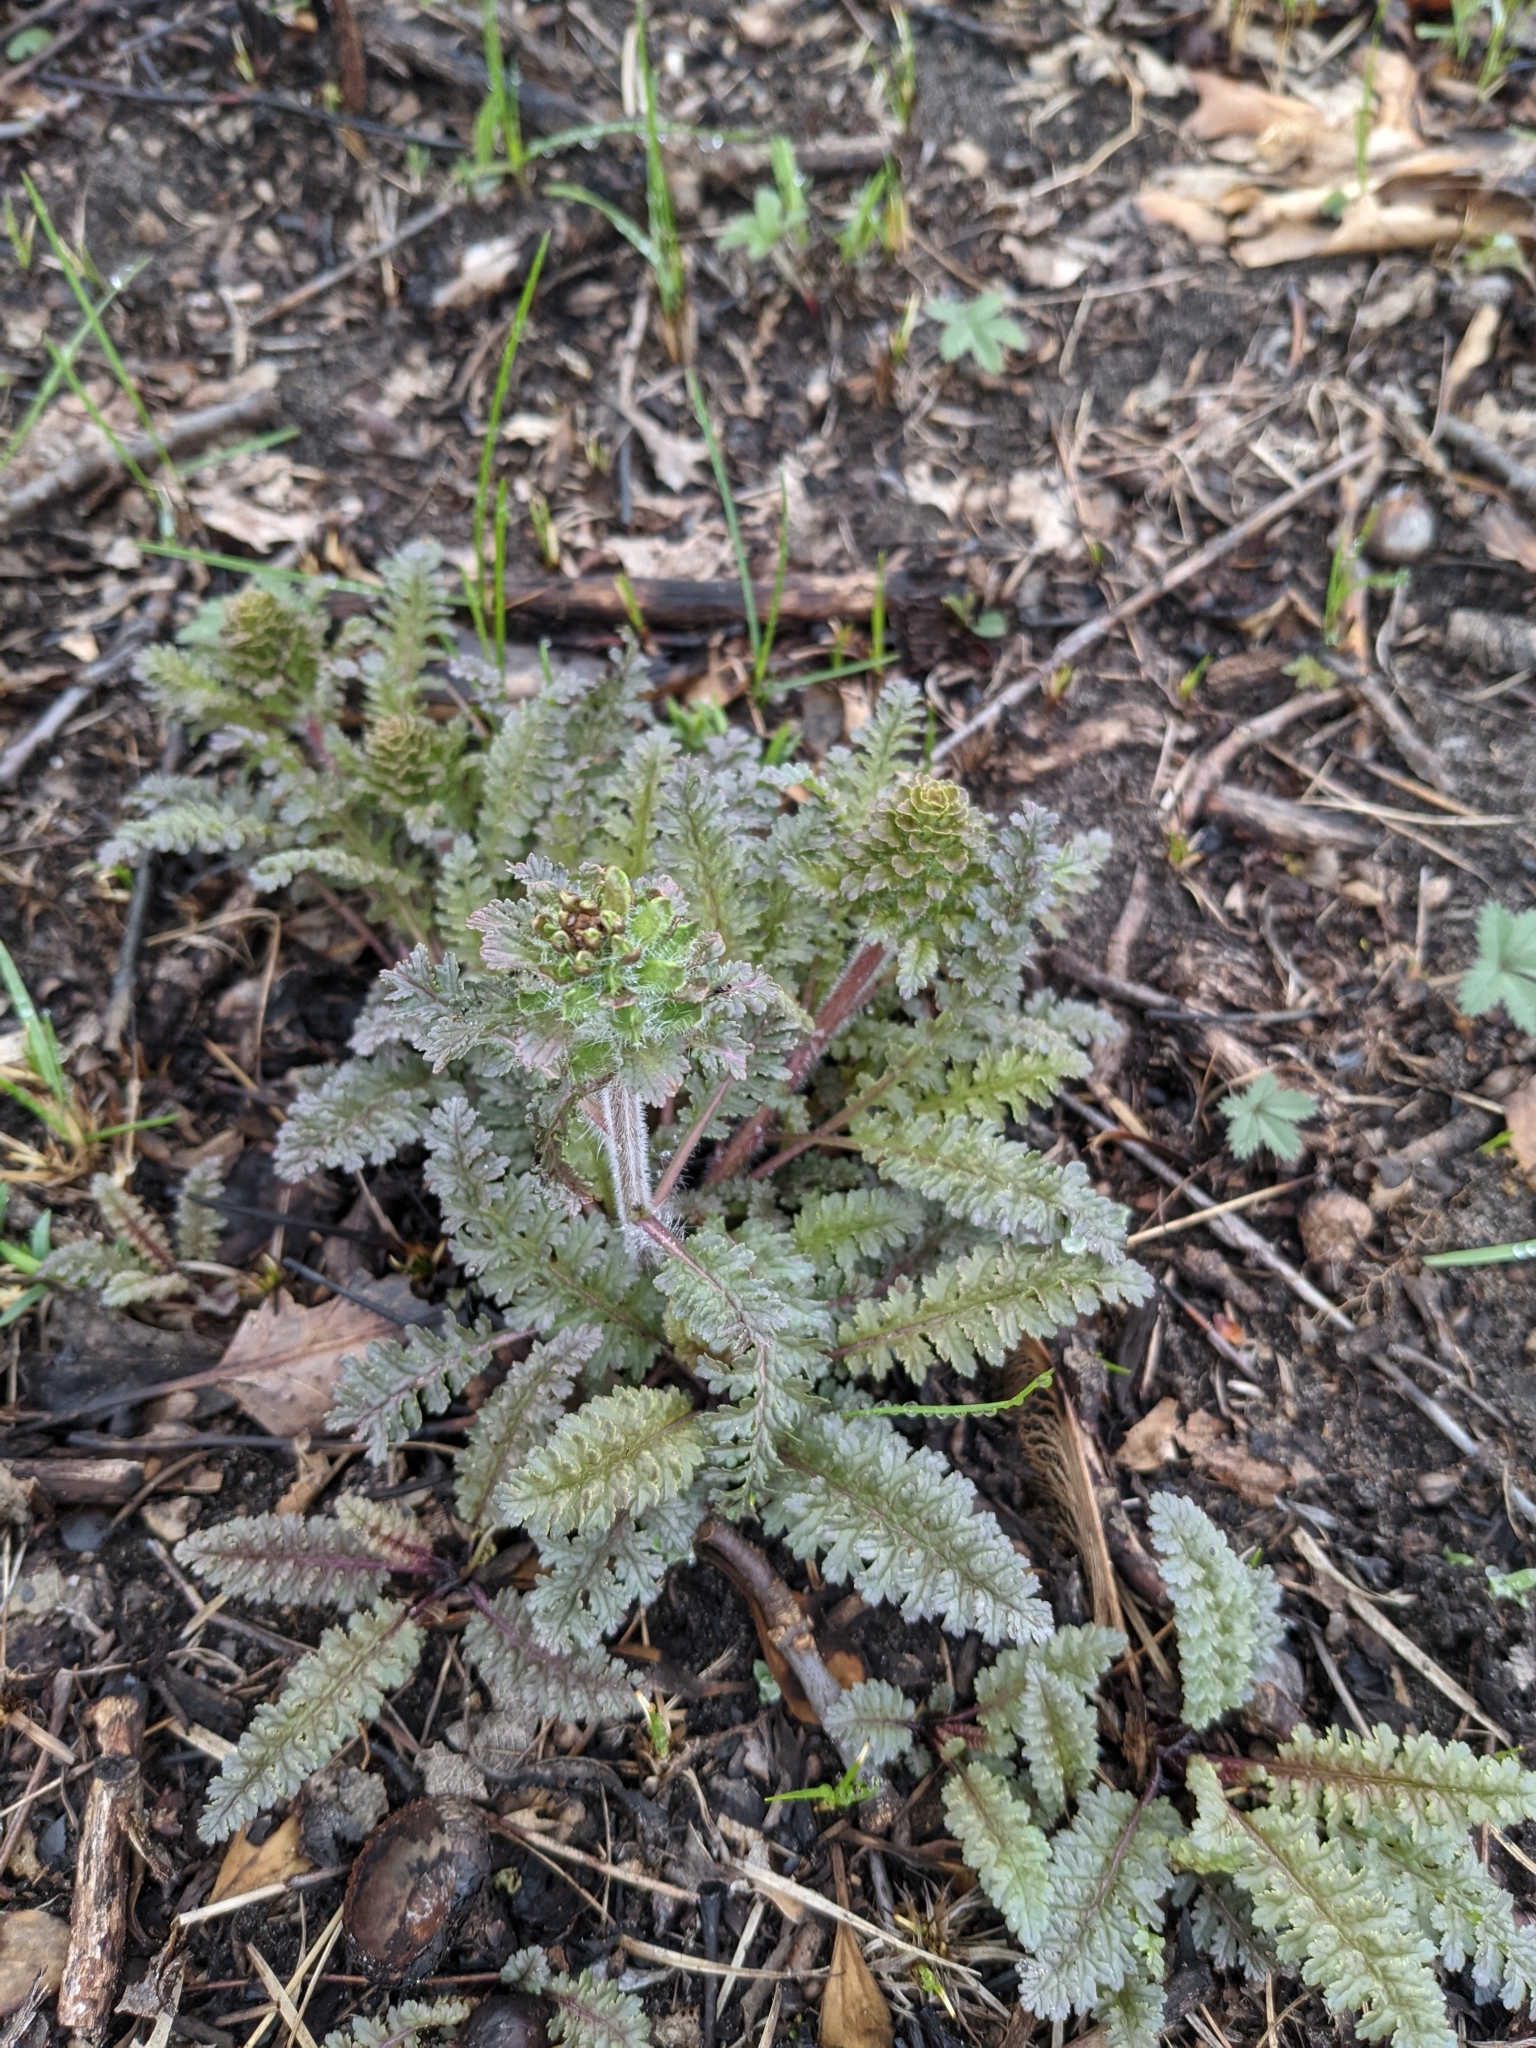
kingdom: Plantae
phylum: Tracheophyta
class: Magnoliopsida
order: Lamiales
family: Orobanchaceae
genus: Pedicularis
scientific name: Pedicularis canadensis
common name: Early lousewort
